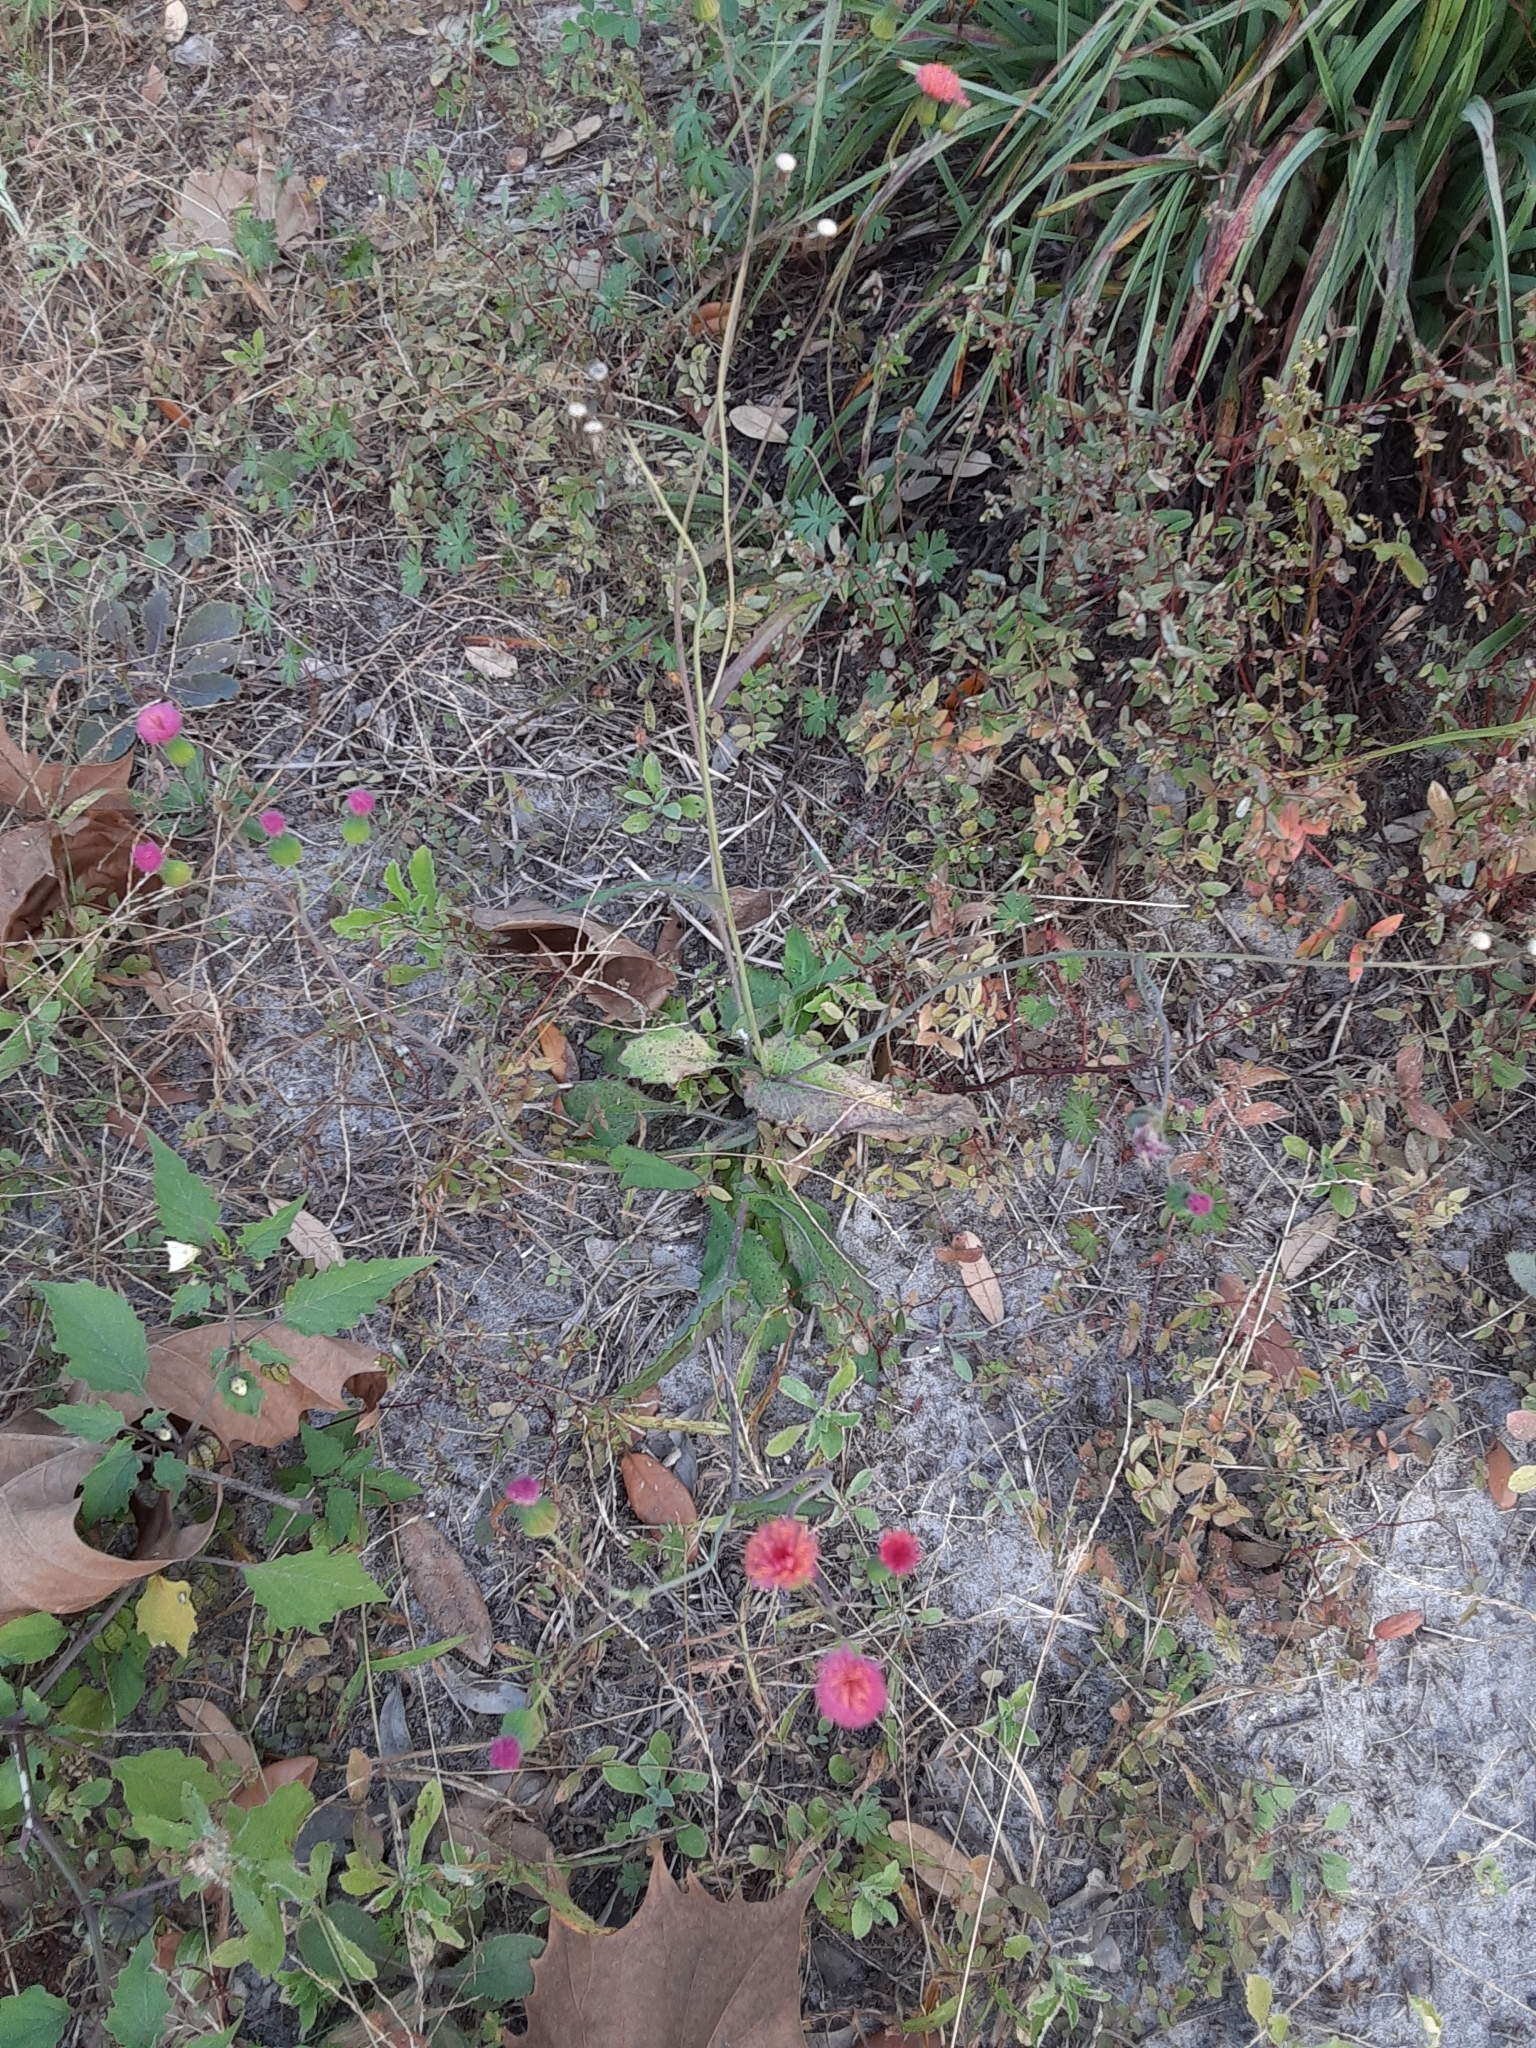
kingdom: Plantae
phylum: Tracheophyta
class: Magnoliopsida
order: Asterales
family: Asteraceae
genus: Emilia
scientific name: Emilia fosbergii
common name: Florida tasselflower
